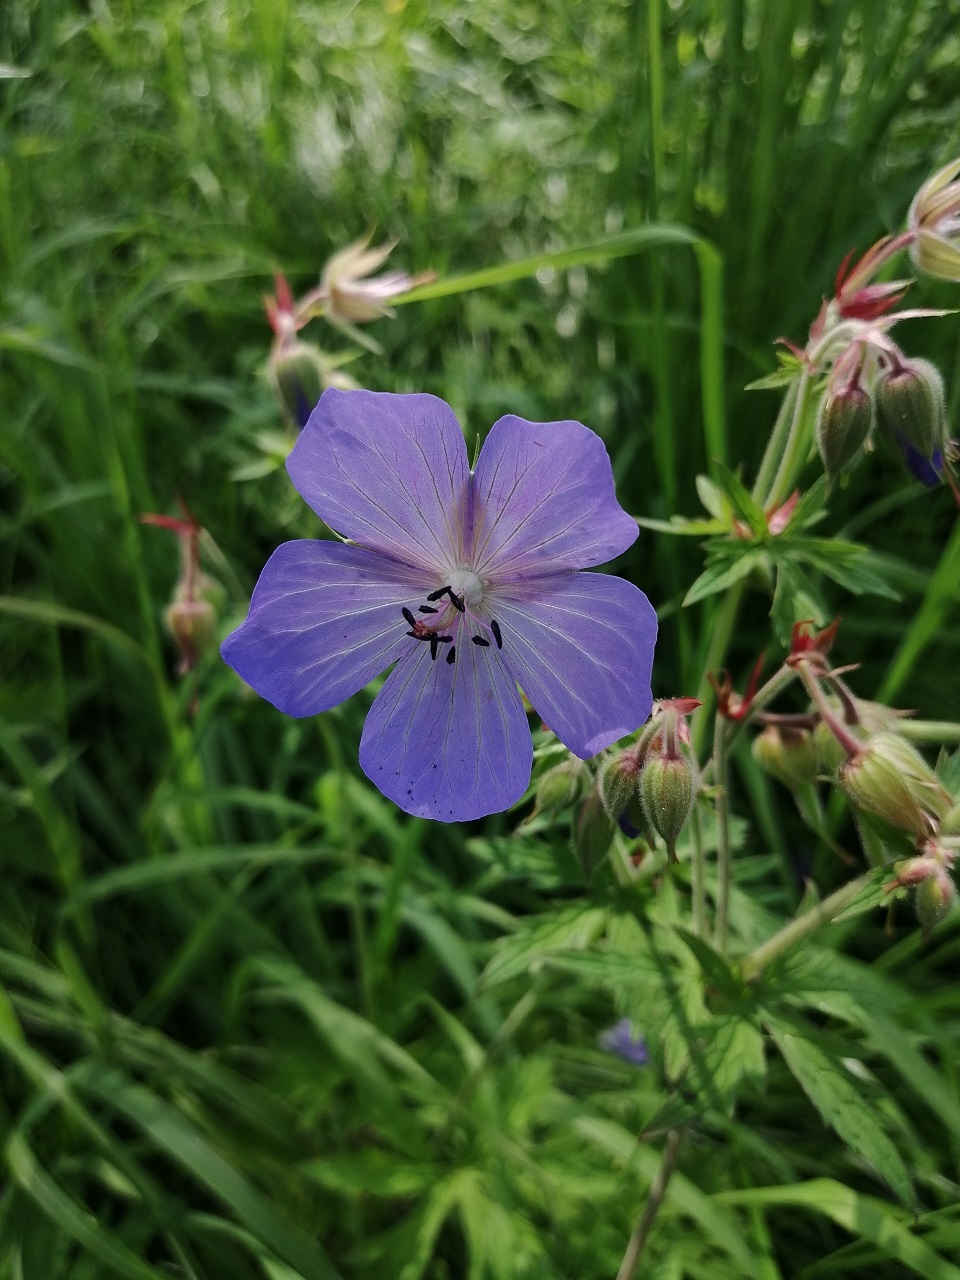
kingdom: Plantae
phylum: Tracheophyta
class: Magnoliopsida
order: Geraniales
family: Geraniaceae
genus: Geranium
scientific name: Geranium pratense
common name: Meadow crane's-bill
